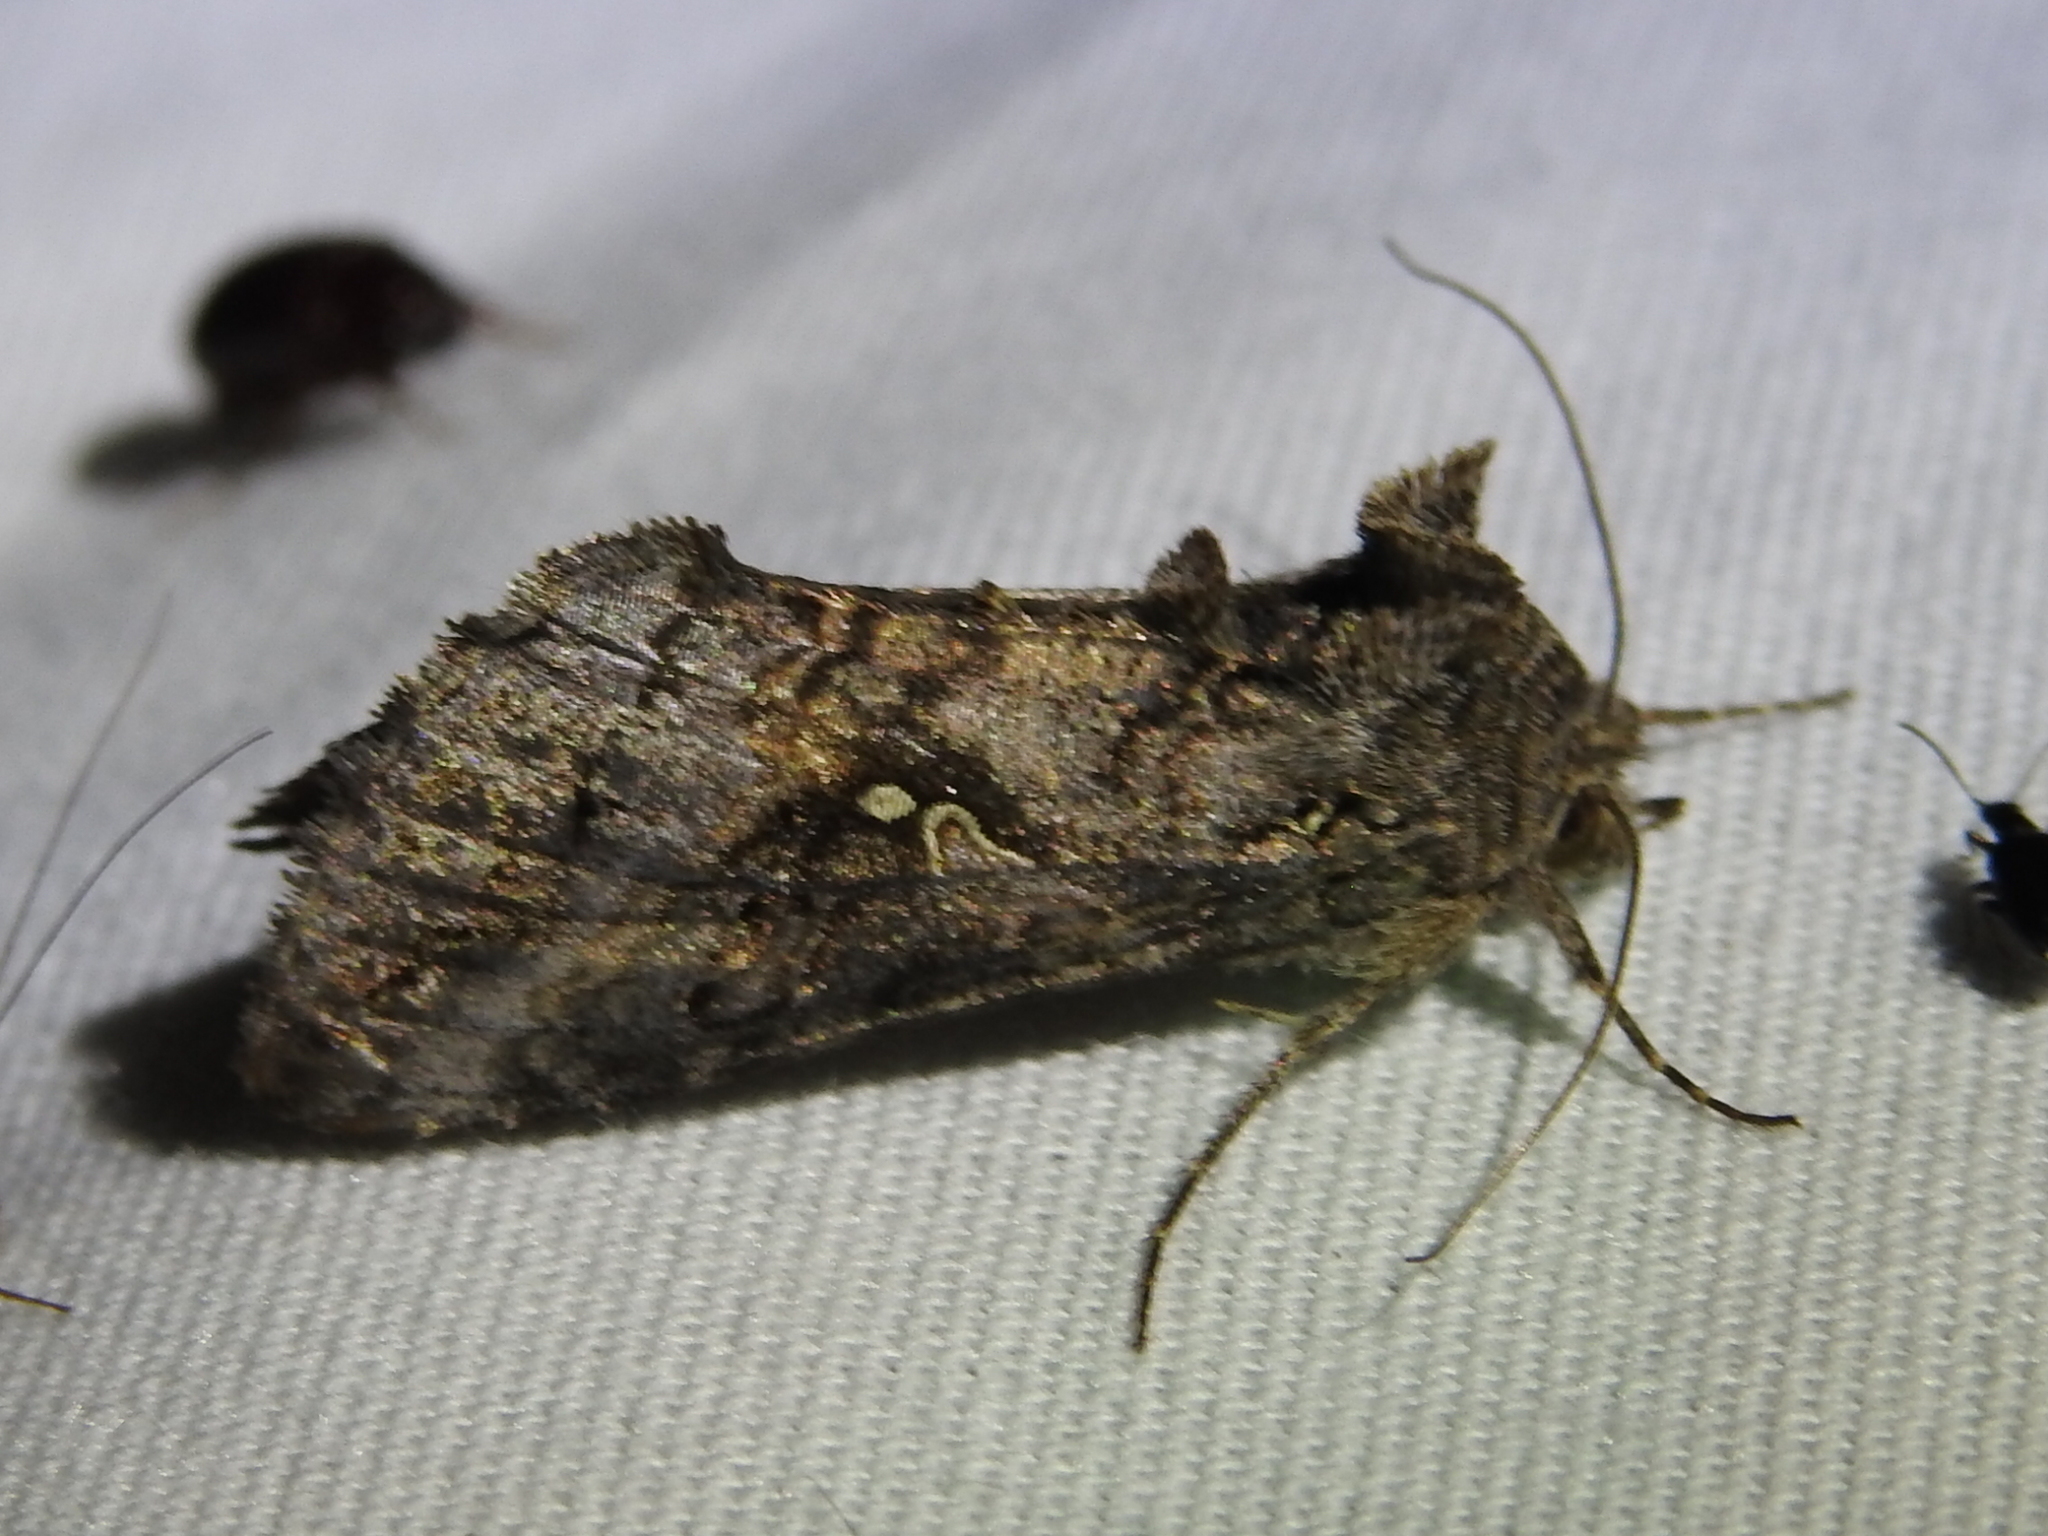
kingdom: Animalia
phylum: Arthropoda
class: Insecta
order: Lepidoptera
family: Noctuidae
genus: Rachiplusia
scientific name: Rachiplusia ou
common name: Gray looper moth
